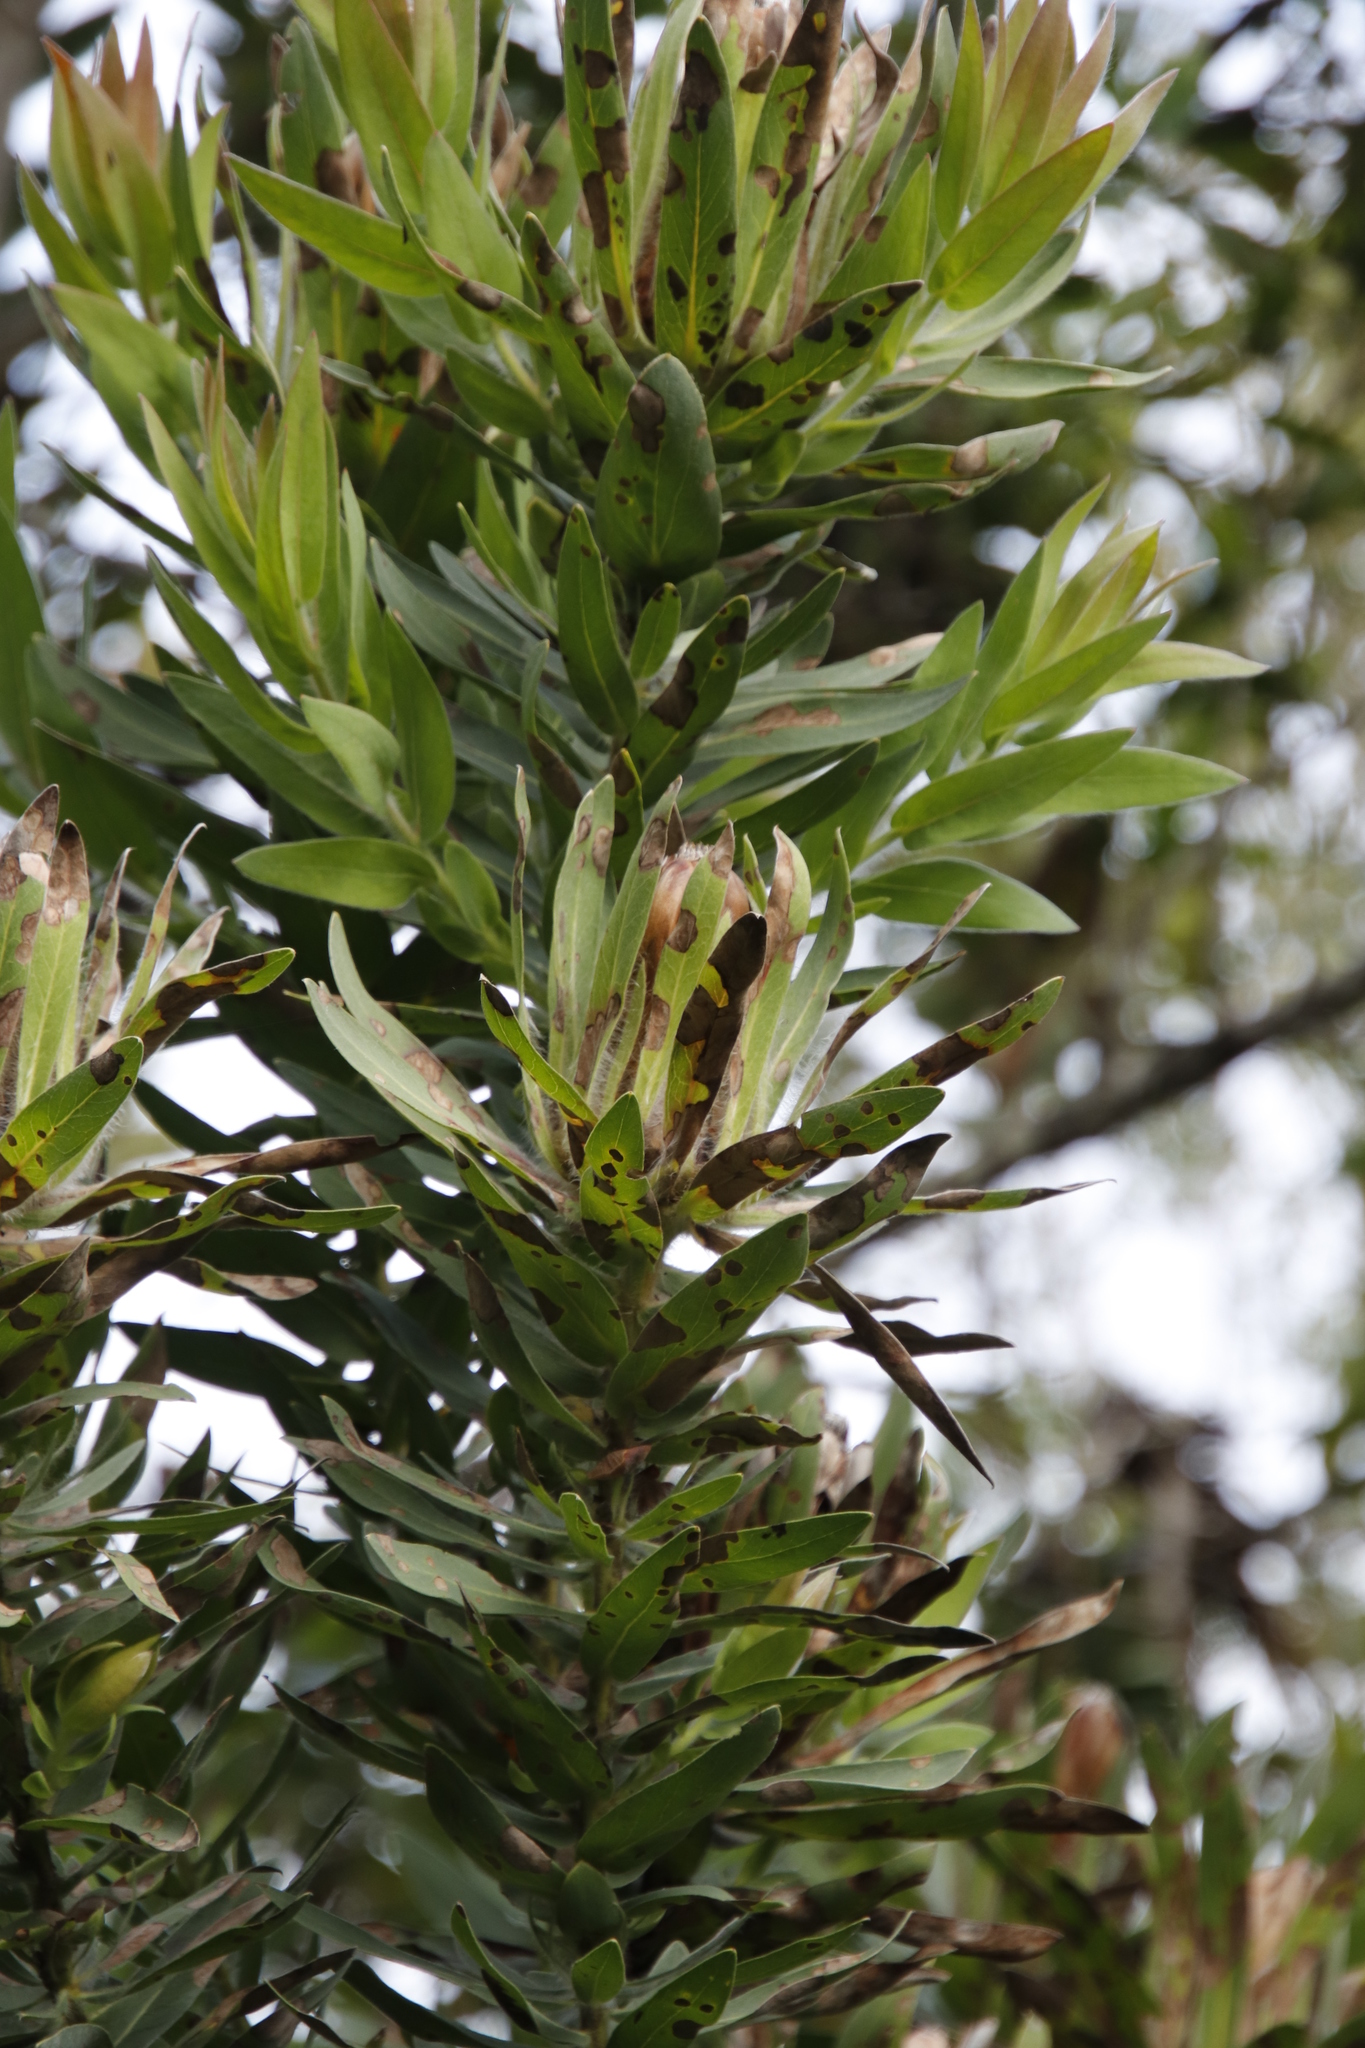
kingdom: Plantae
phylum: Tracheophyta
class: Magnoliopsida
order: Proteales
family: Proteaceae
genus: Protea
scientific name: Protea coronata
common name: Green sugarbush
